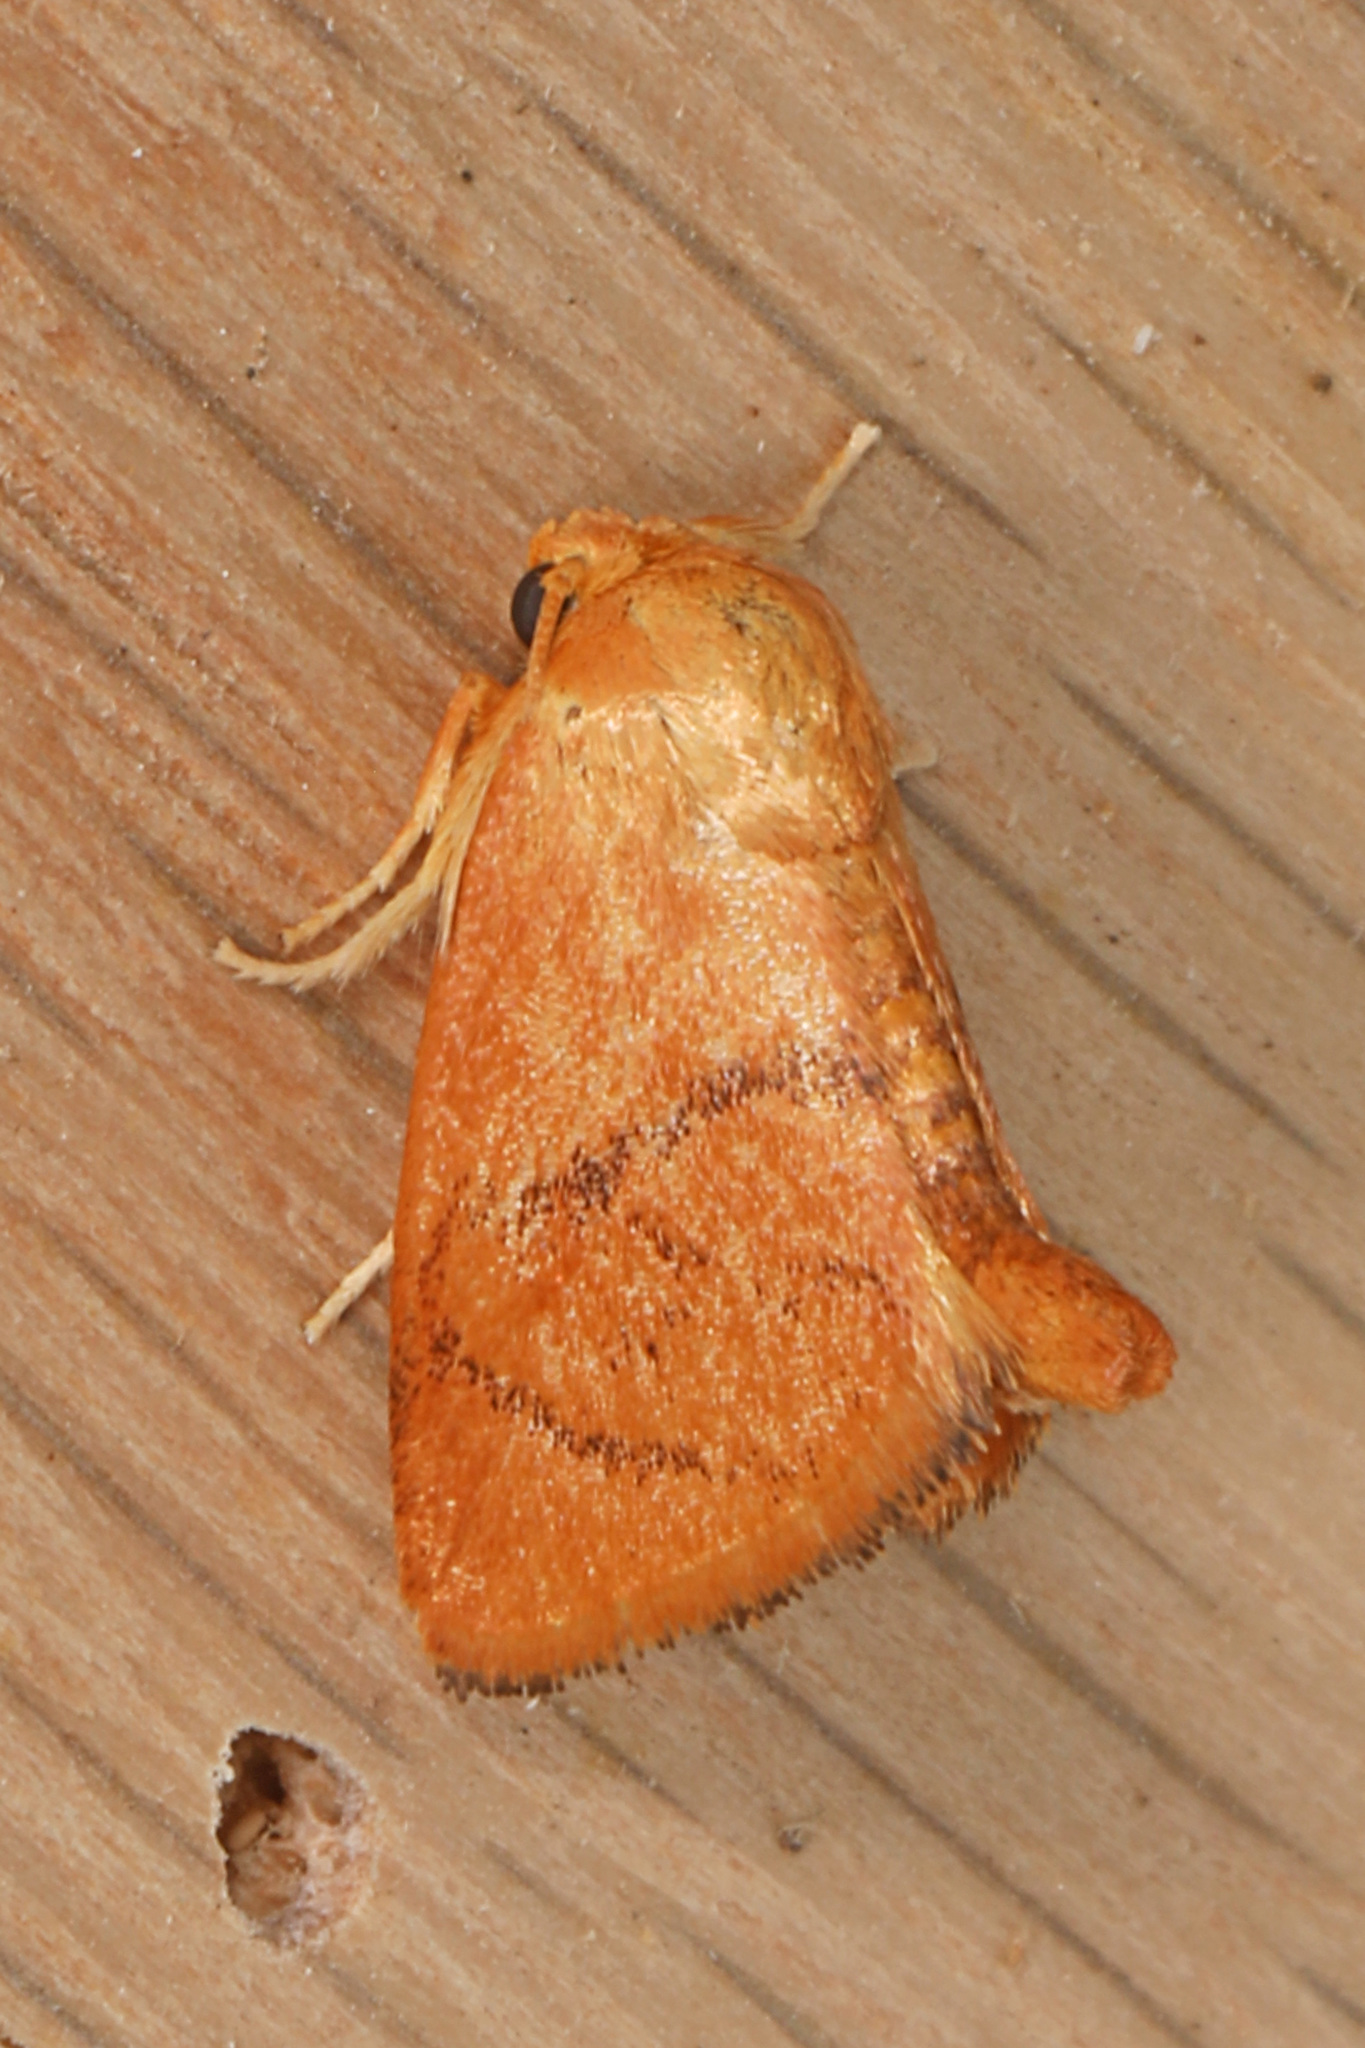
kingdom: Animalia
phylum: Arthropoda
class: Insecta
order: Lepidoptera
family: Limacodidae
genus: Tortricidia
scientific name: Tortricidia flexuosa
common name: Abbreviated button slug moth
